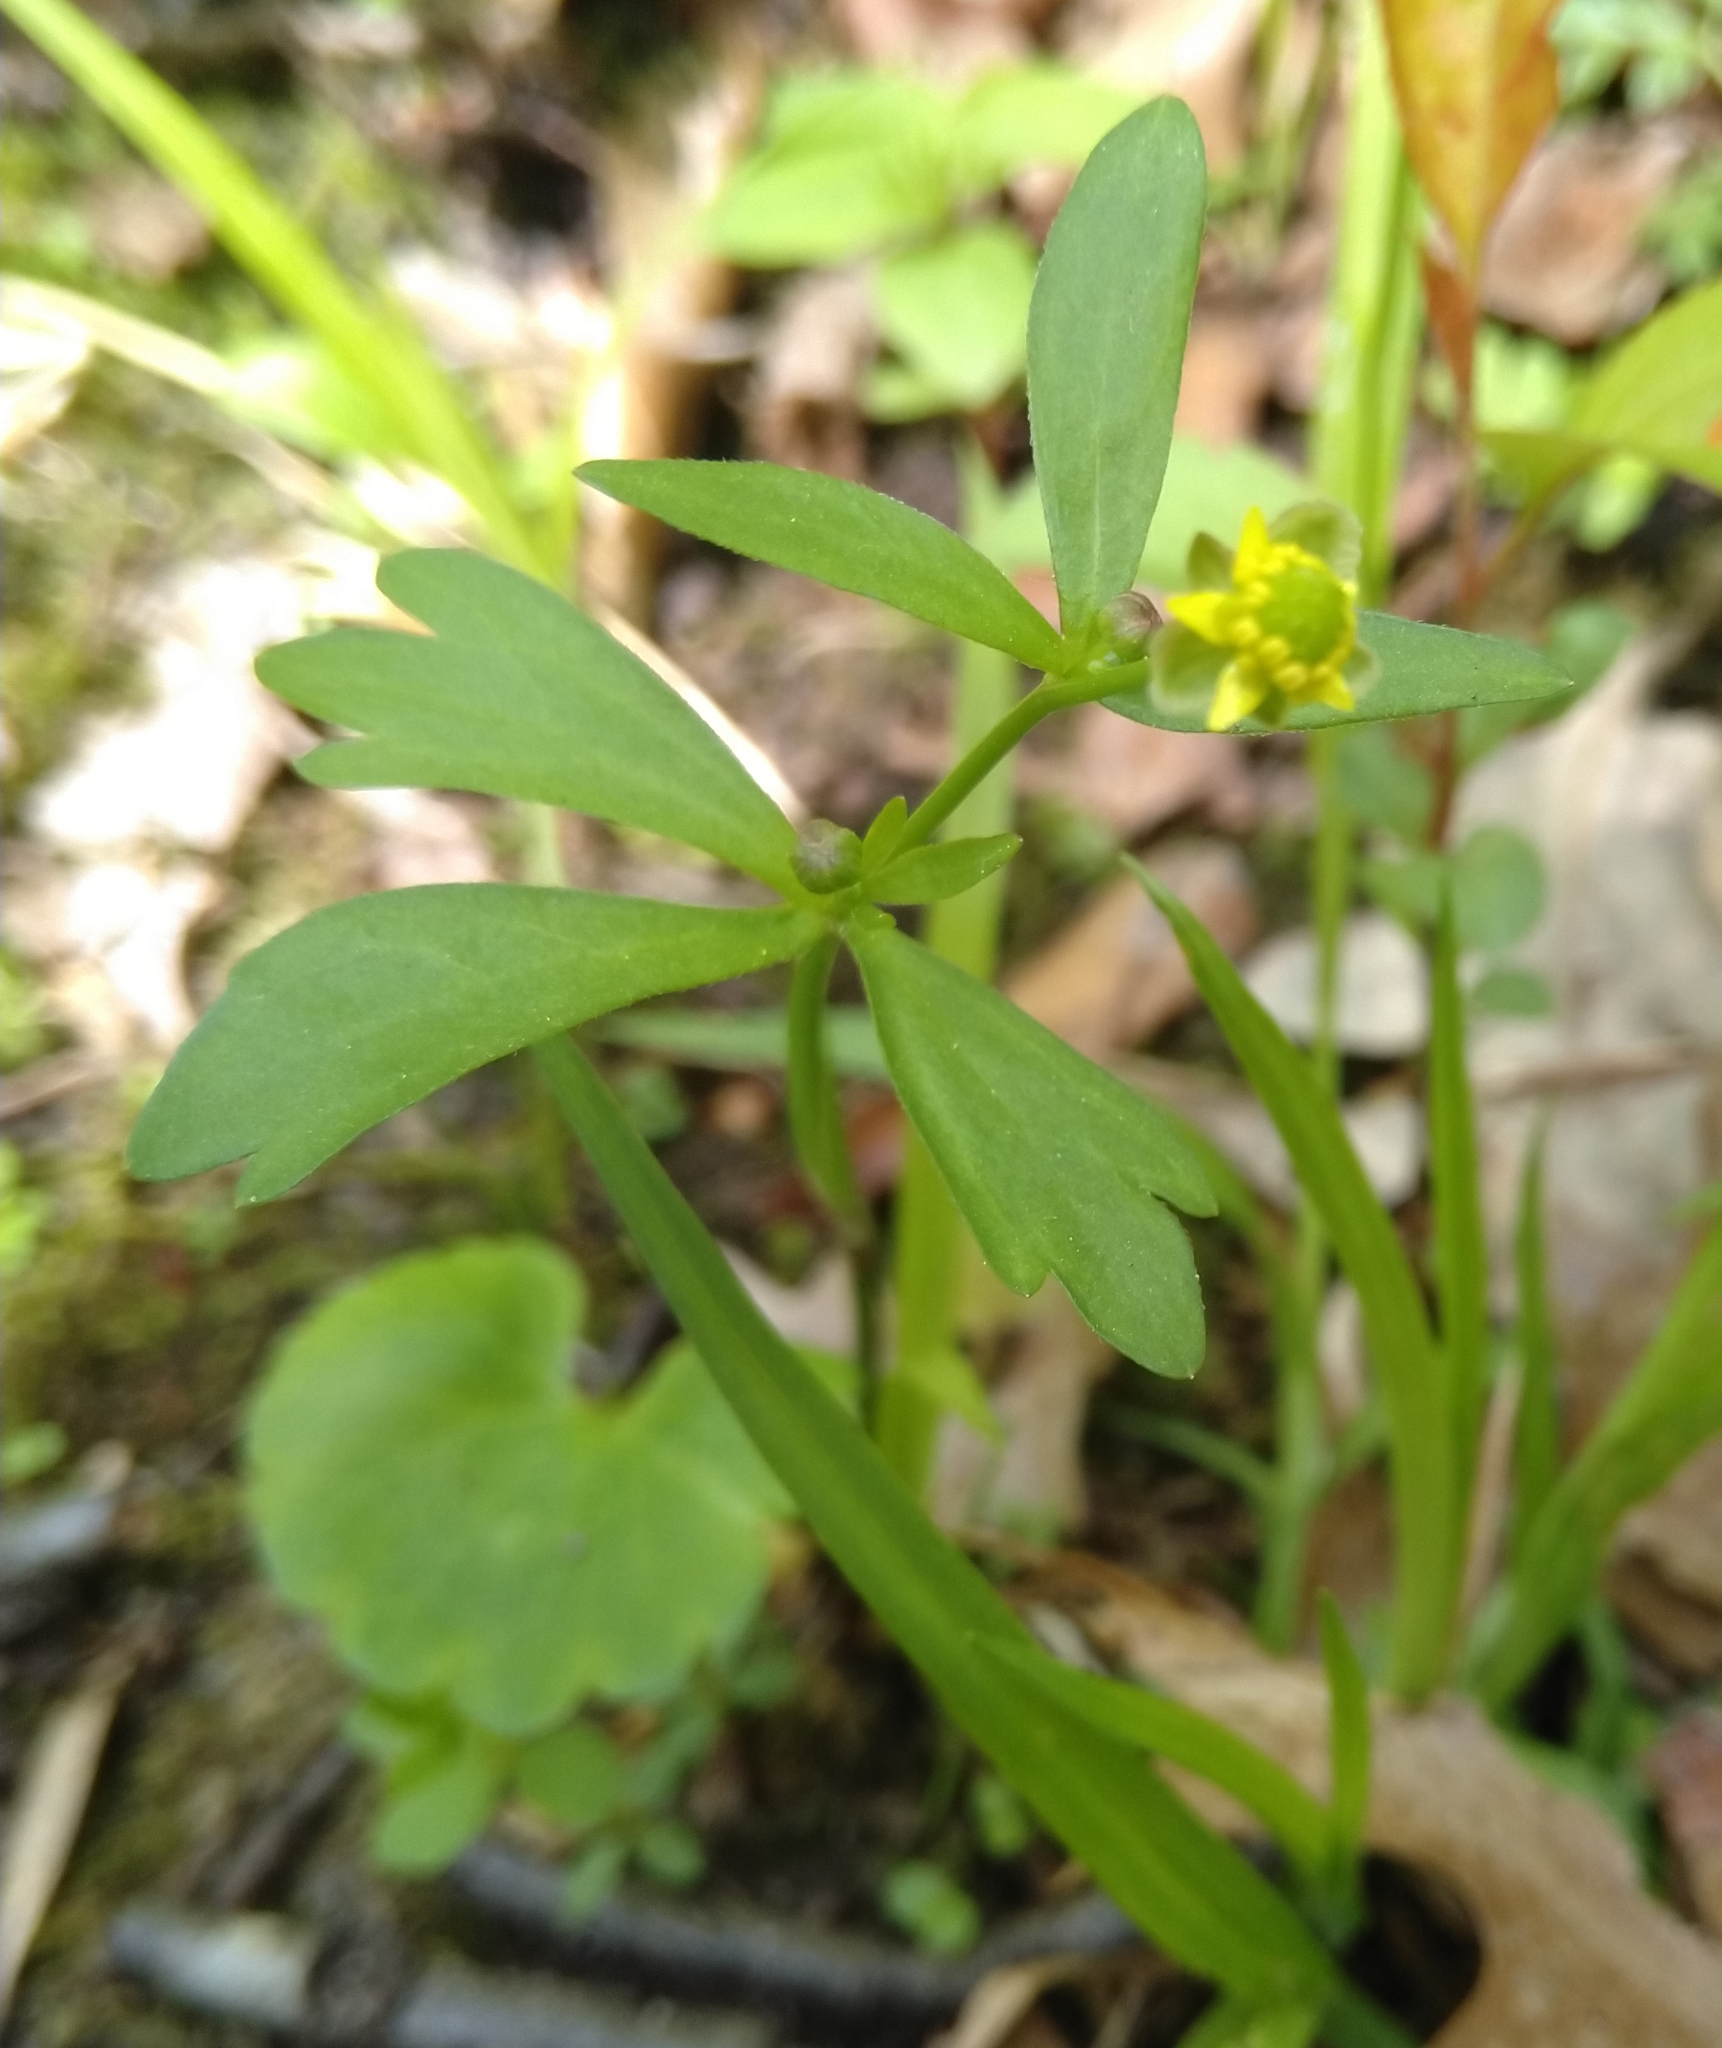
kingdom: Plantae
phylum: Tracheophyta
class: Magnoliopsida
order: Ranunculales
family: Ranunculaceae
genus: Ranunculus
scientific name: Ranunculus abortivus
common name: Early wood buttercup
